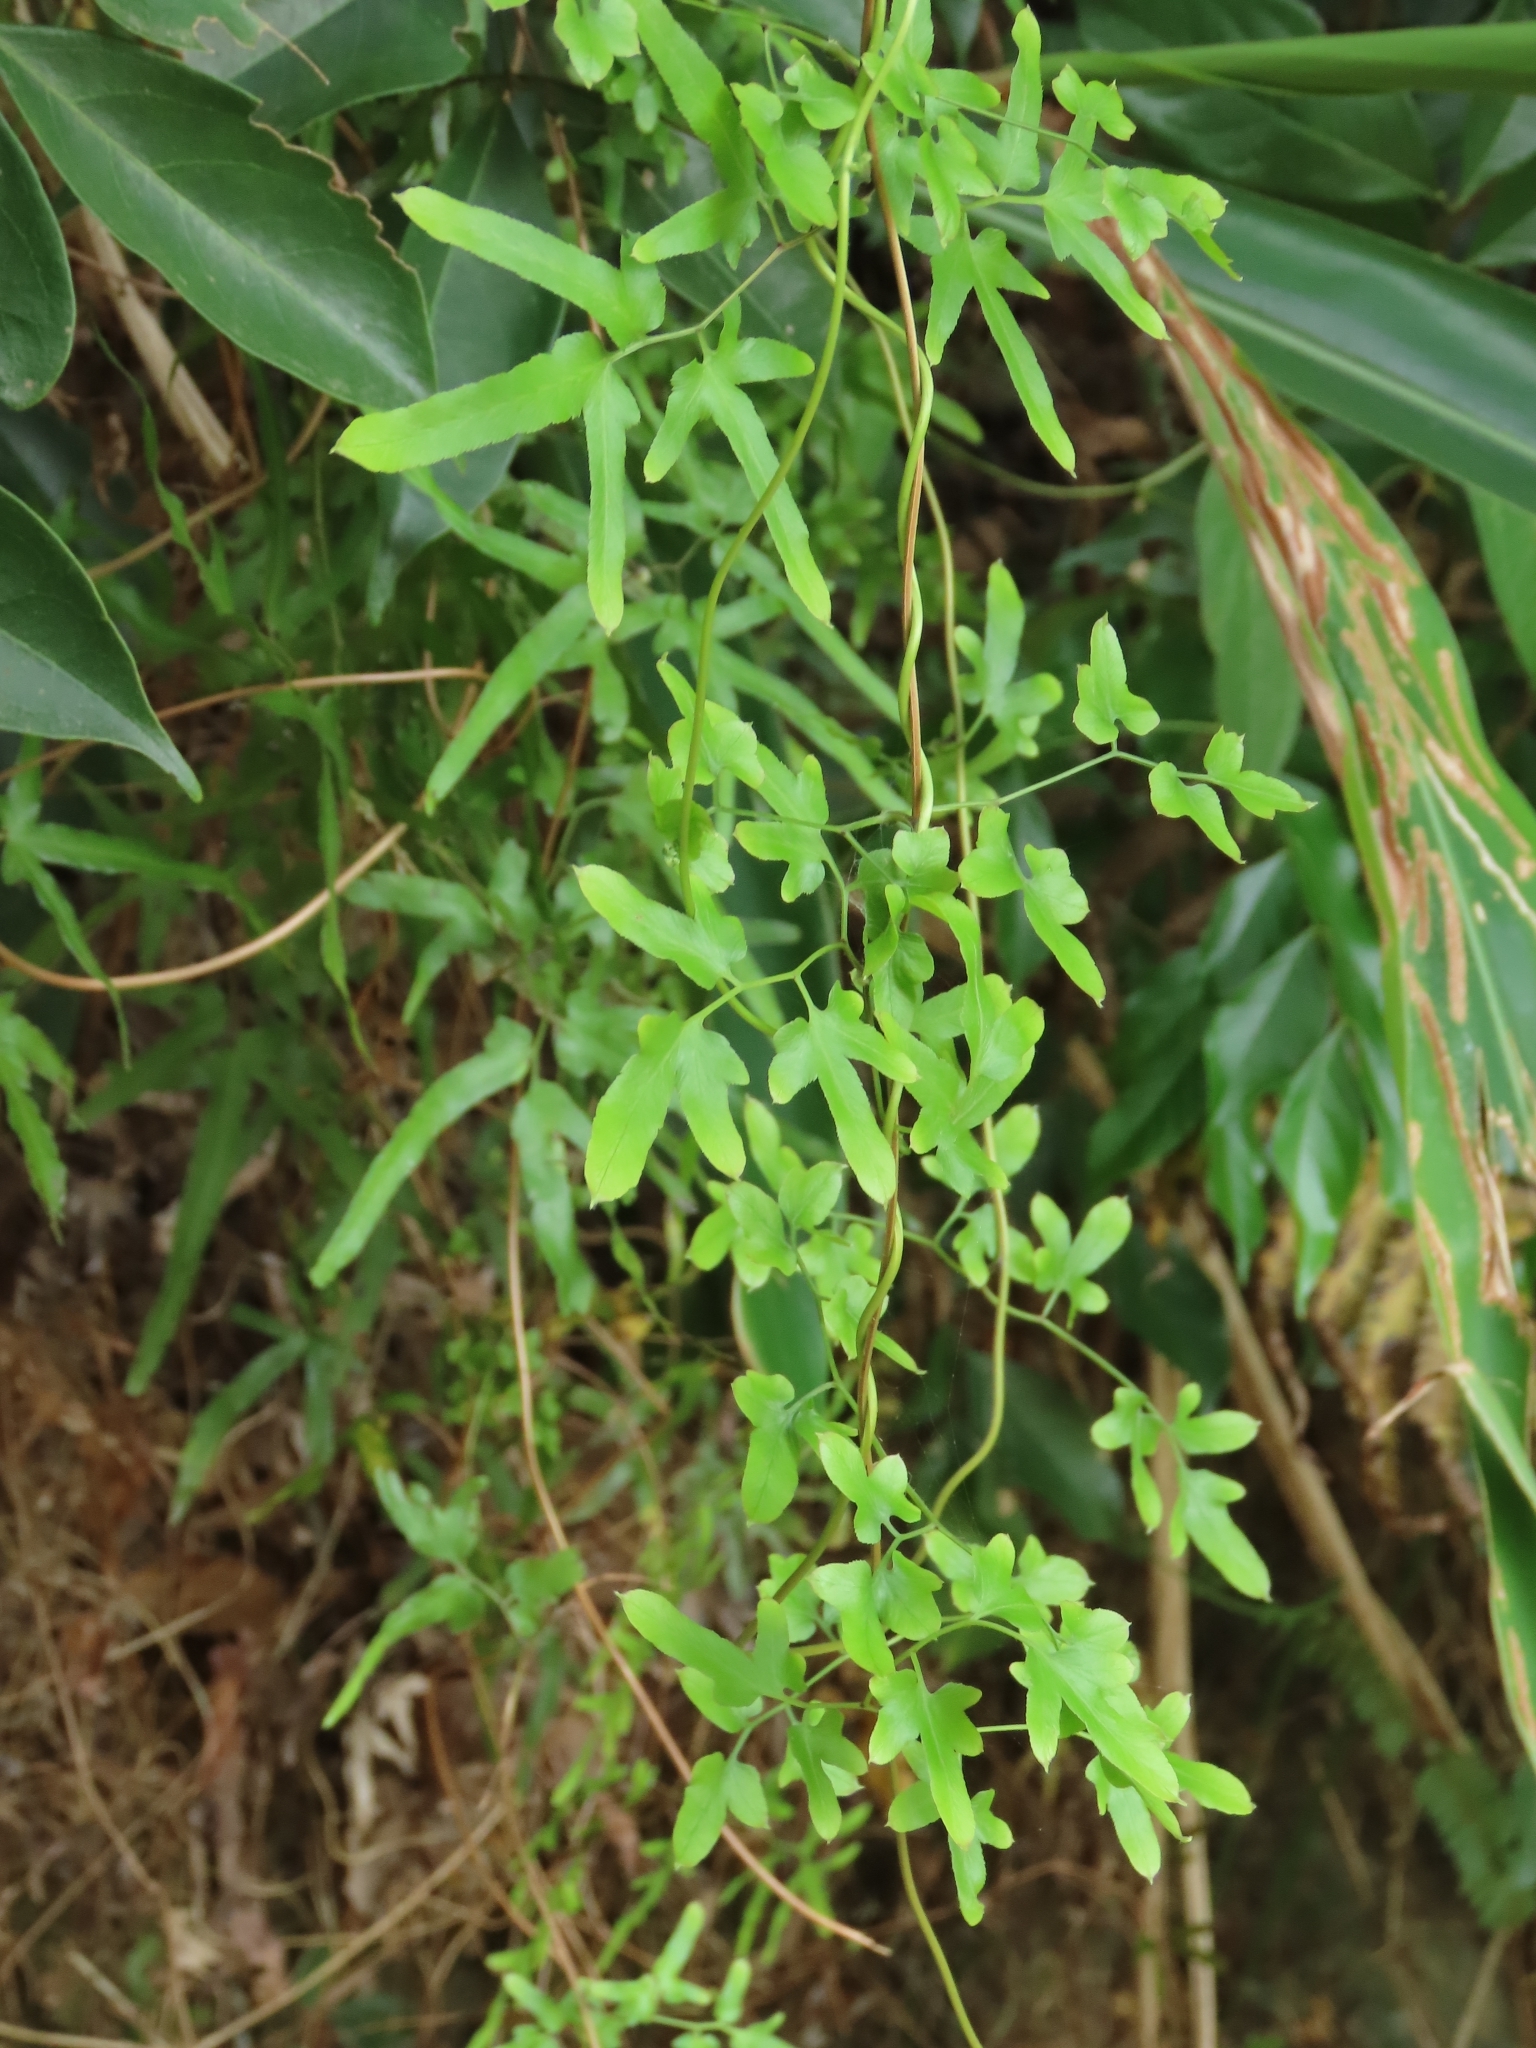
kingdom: Plantae
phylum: Tracheophyta
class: Polypodiopsida
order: Schizaeales
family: Lygodiaceae
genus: Lygodium
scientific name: Lygodium japonicum
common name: Japanese climbing fern
